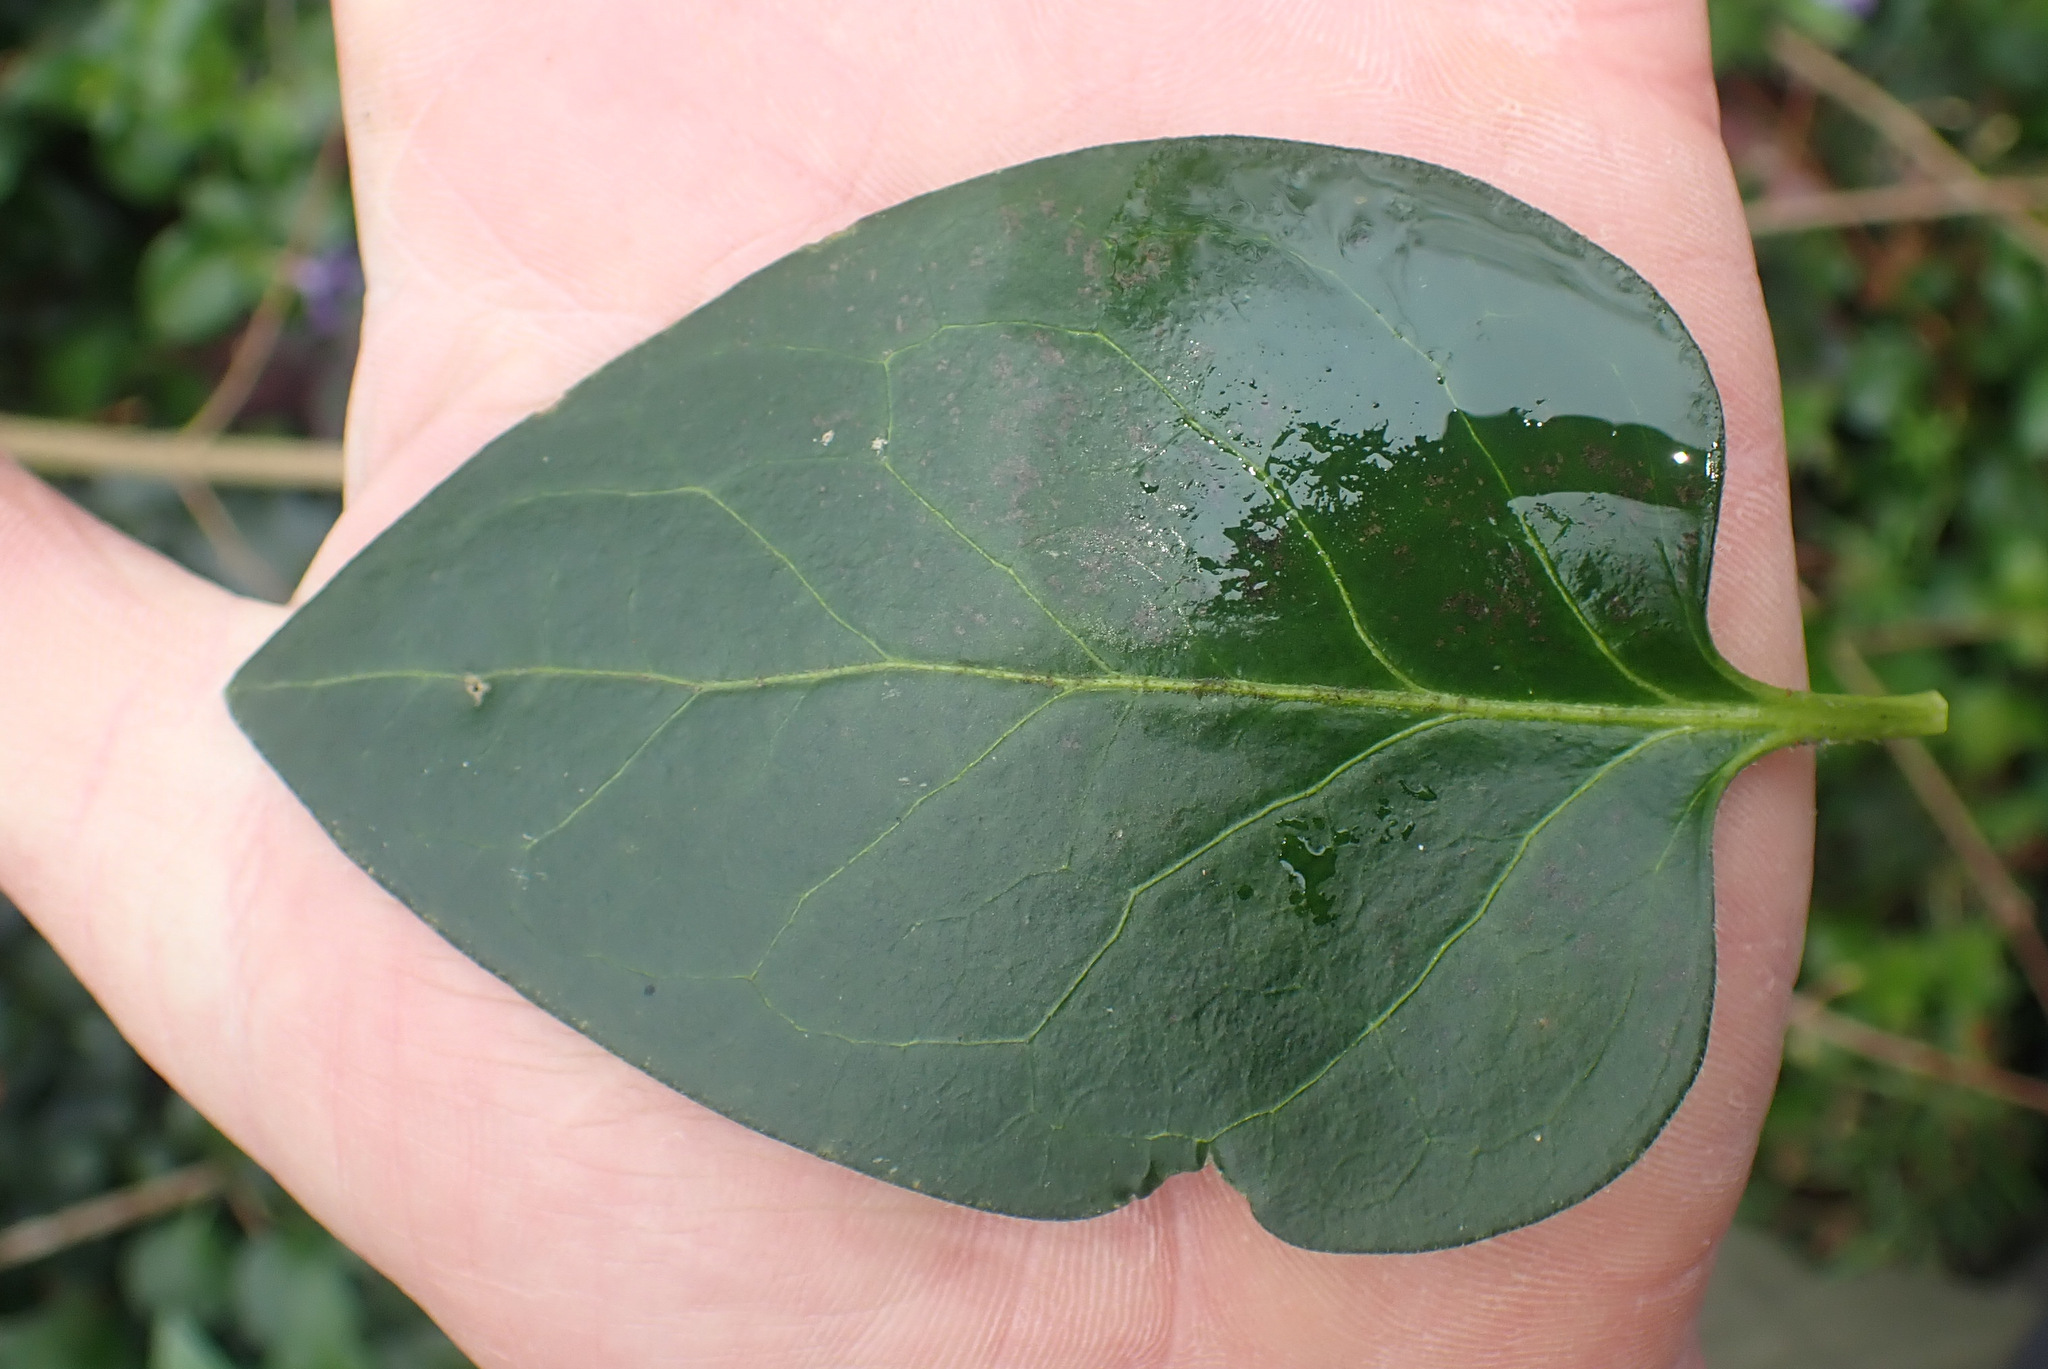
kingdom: Plantae
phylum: Tracheophyta
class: Magnoliopsida
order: Gentianales
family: Apocynaceae
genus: Vinca
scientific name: Vinca major
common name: Greater periwinkle
